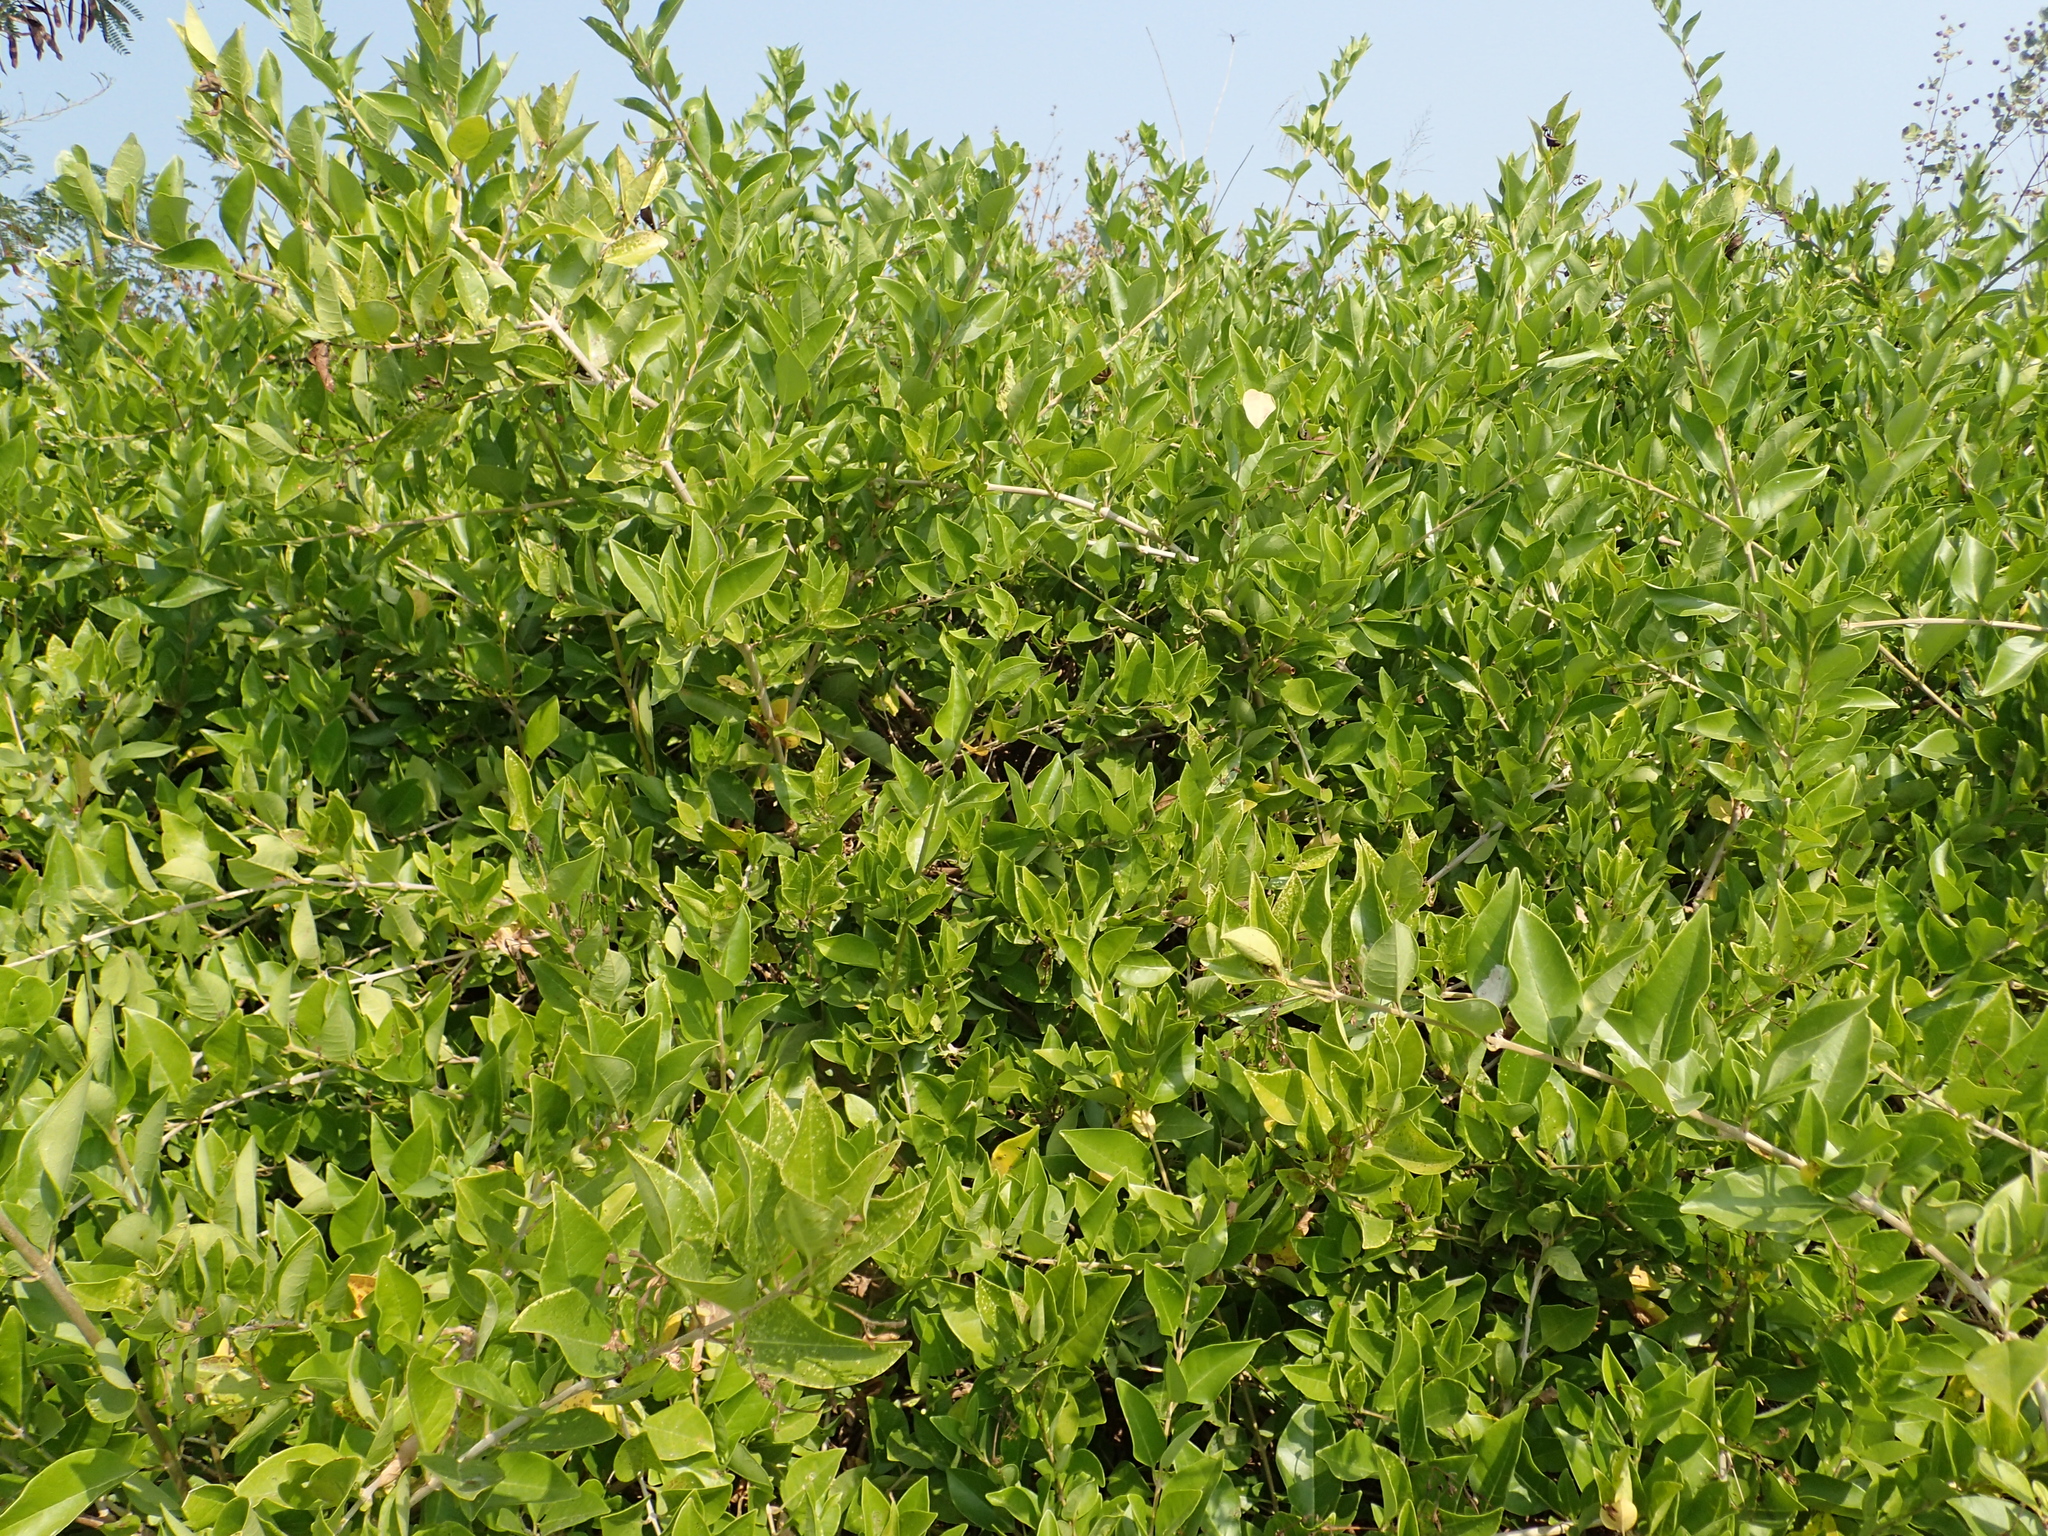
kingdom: Plantae
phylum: Tracheophyta
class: Magnoliopsida
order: Lamiales
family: Lamiaceae
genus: Volkameria
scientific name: Volkameria inermis
